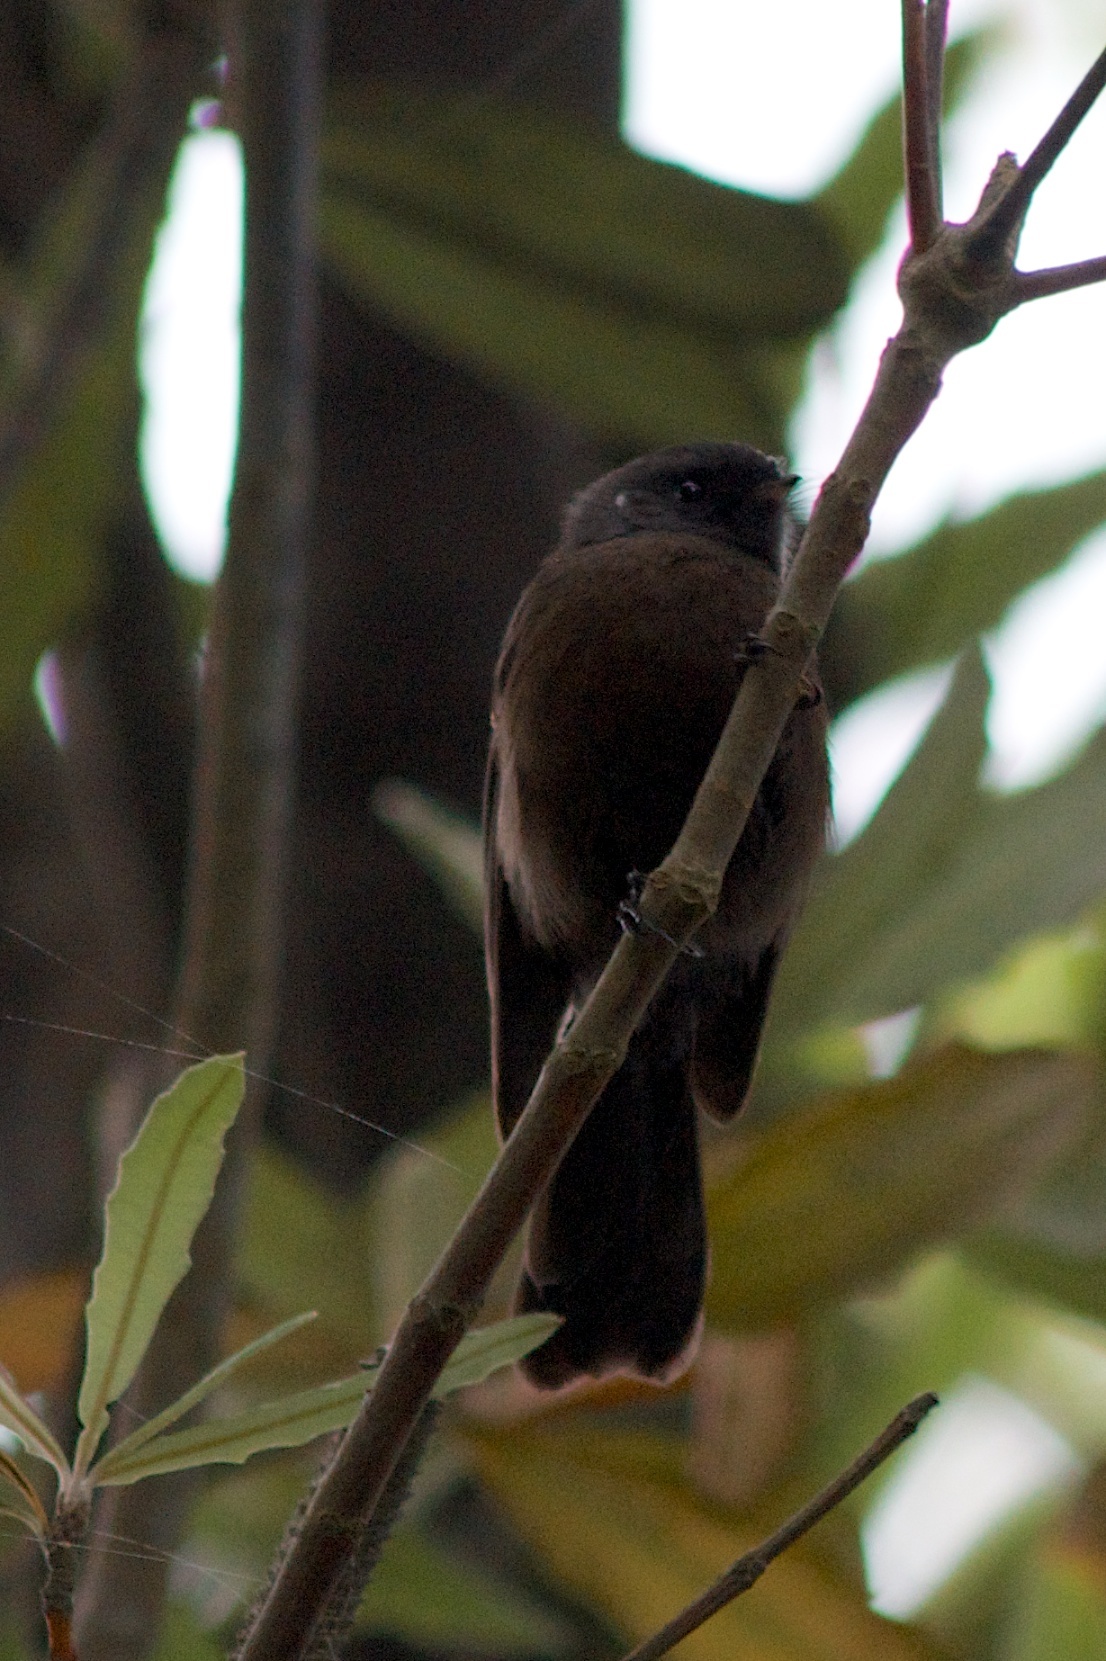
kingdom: Animalia
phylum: Chordata
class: Aves
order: Passeriformes
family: Rhipiduridae
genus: Rhipidura
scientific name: Rhipidura fuliginosa
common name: New zealand fantail
